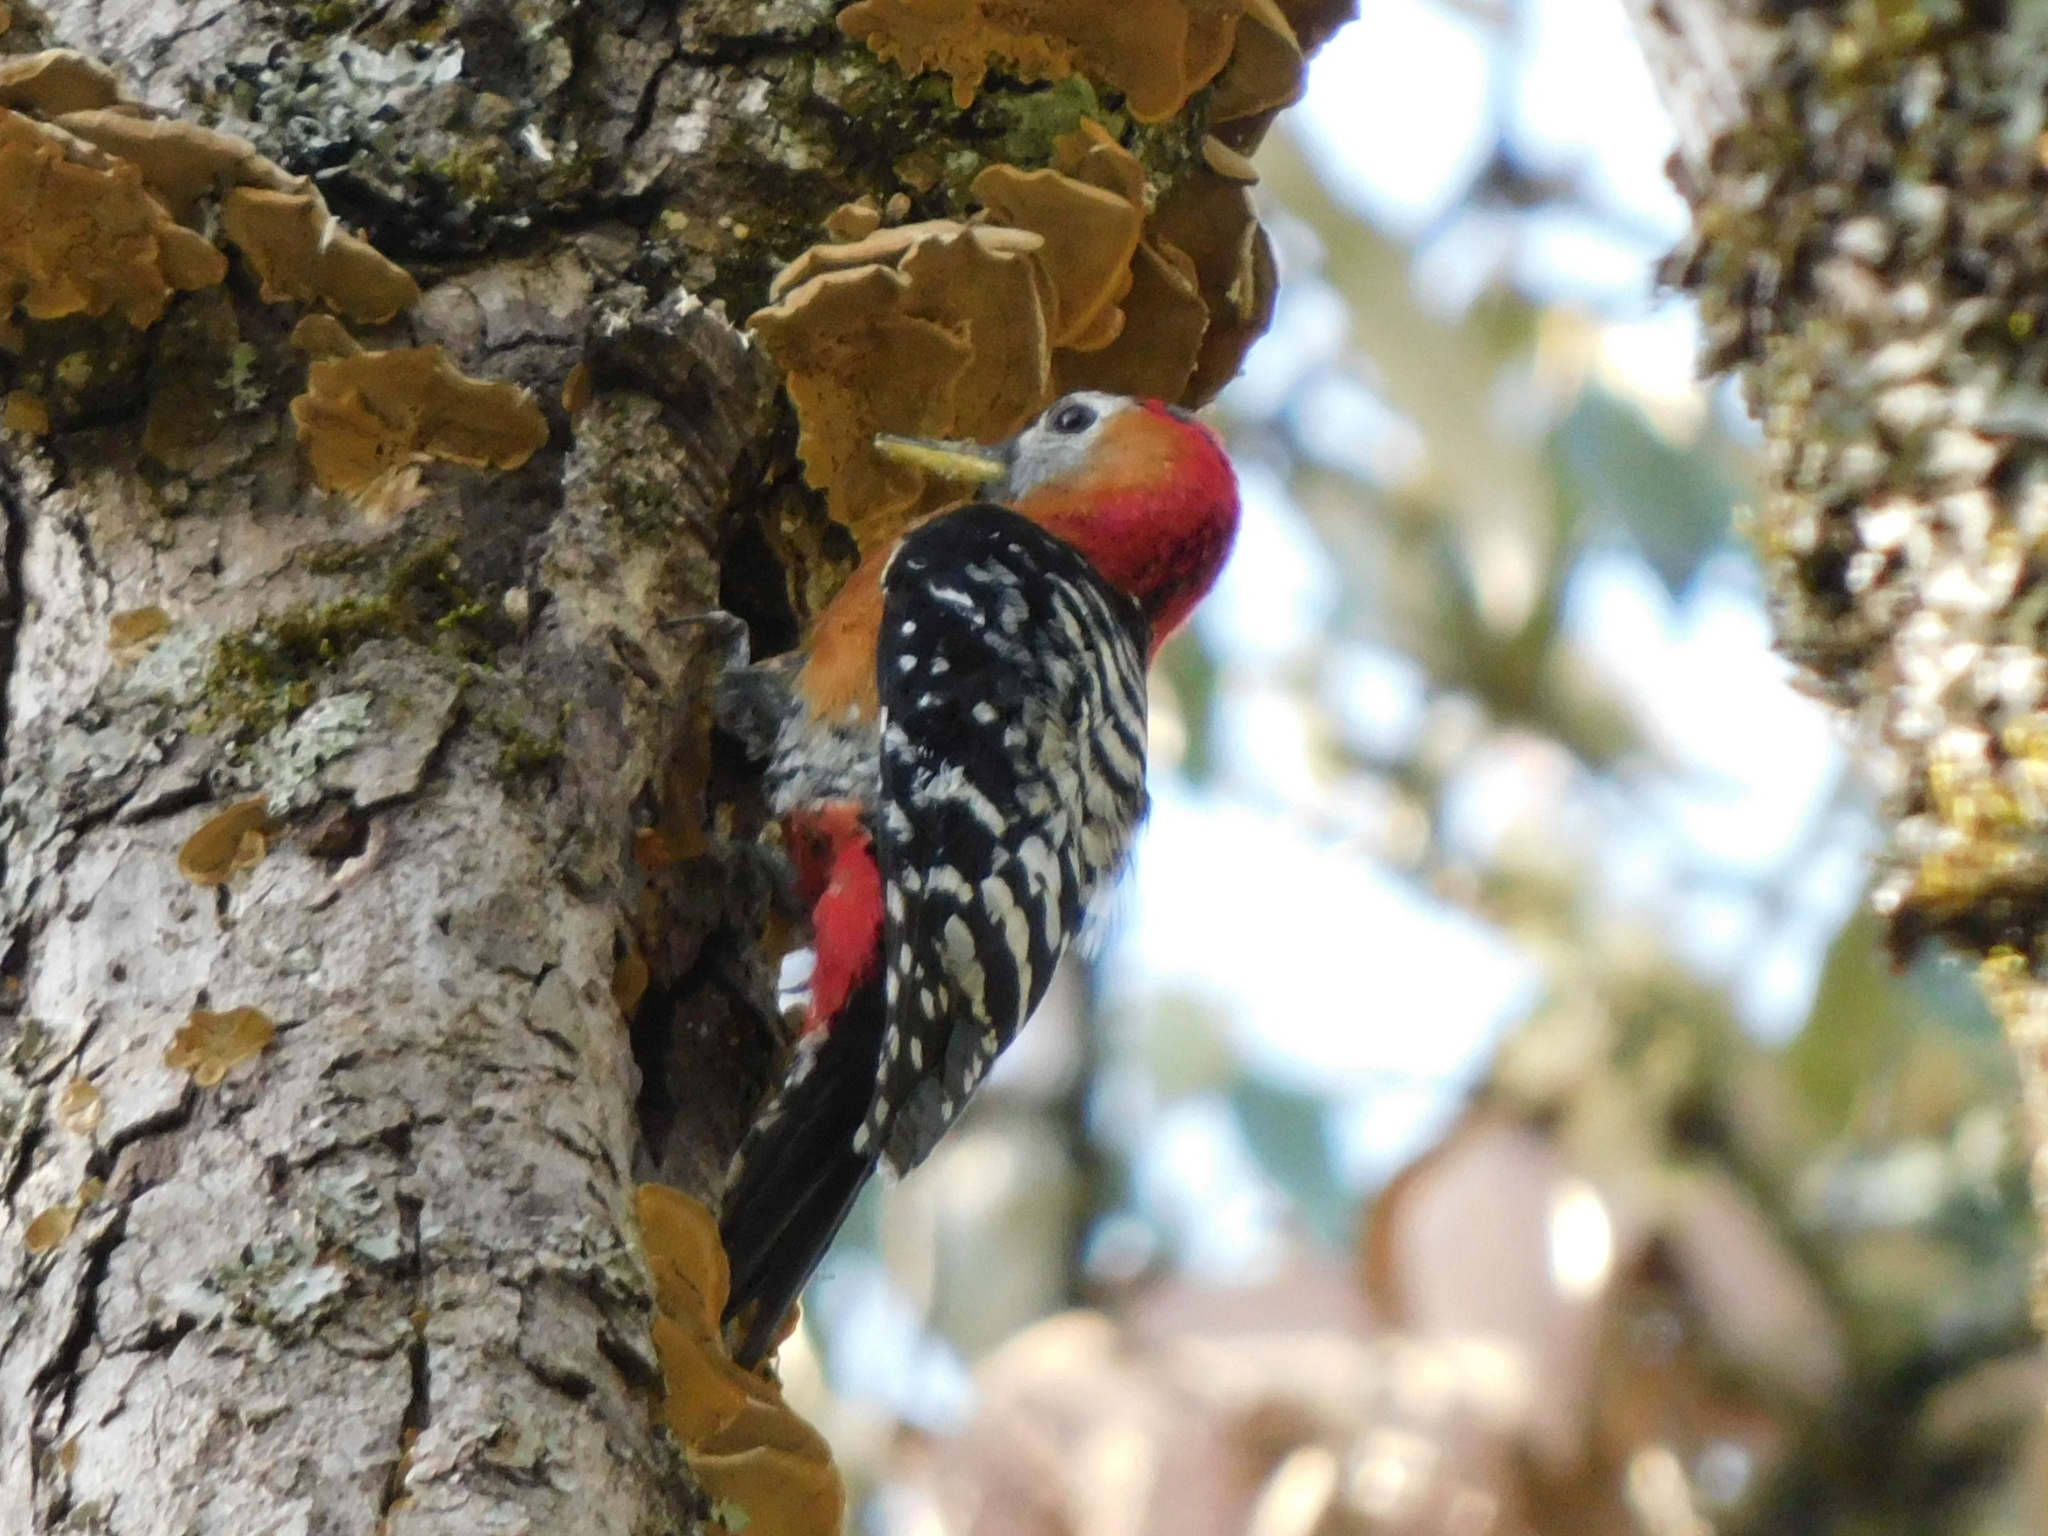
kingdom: Animalia
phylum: Chordata
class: Aves
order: Piciformes
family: Picidae
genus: Dendrocopos
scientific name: Dendrocopos hyperythrus
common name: Rufous-bellied woodpecker
